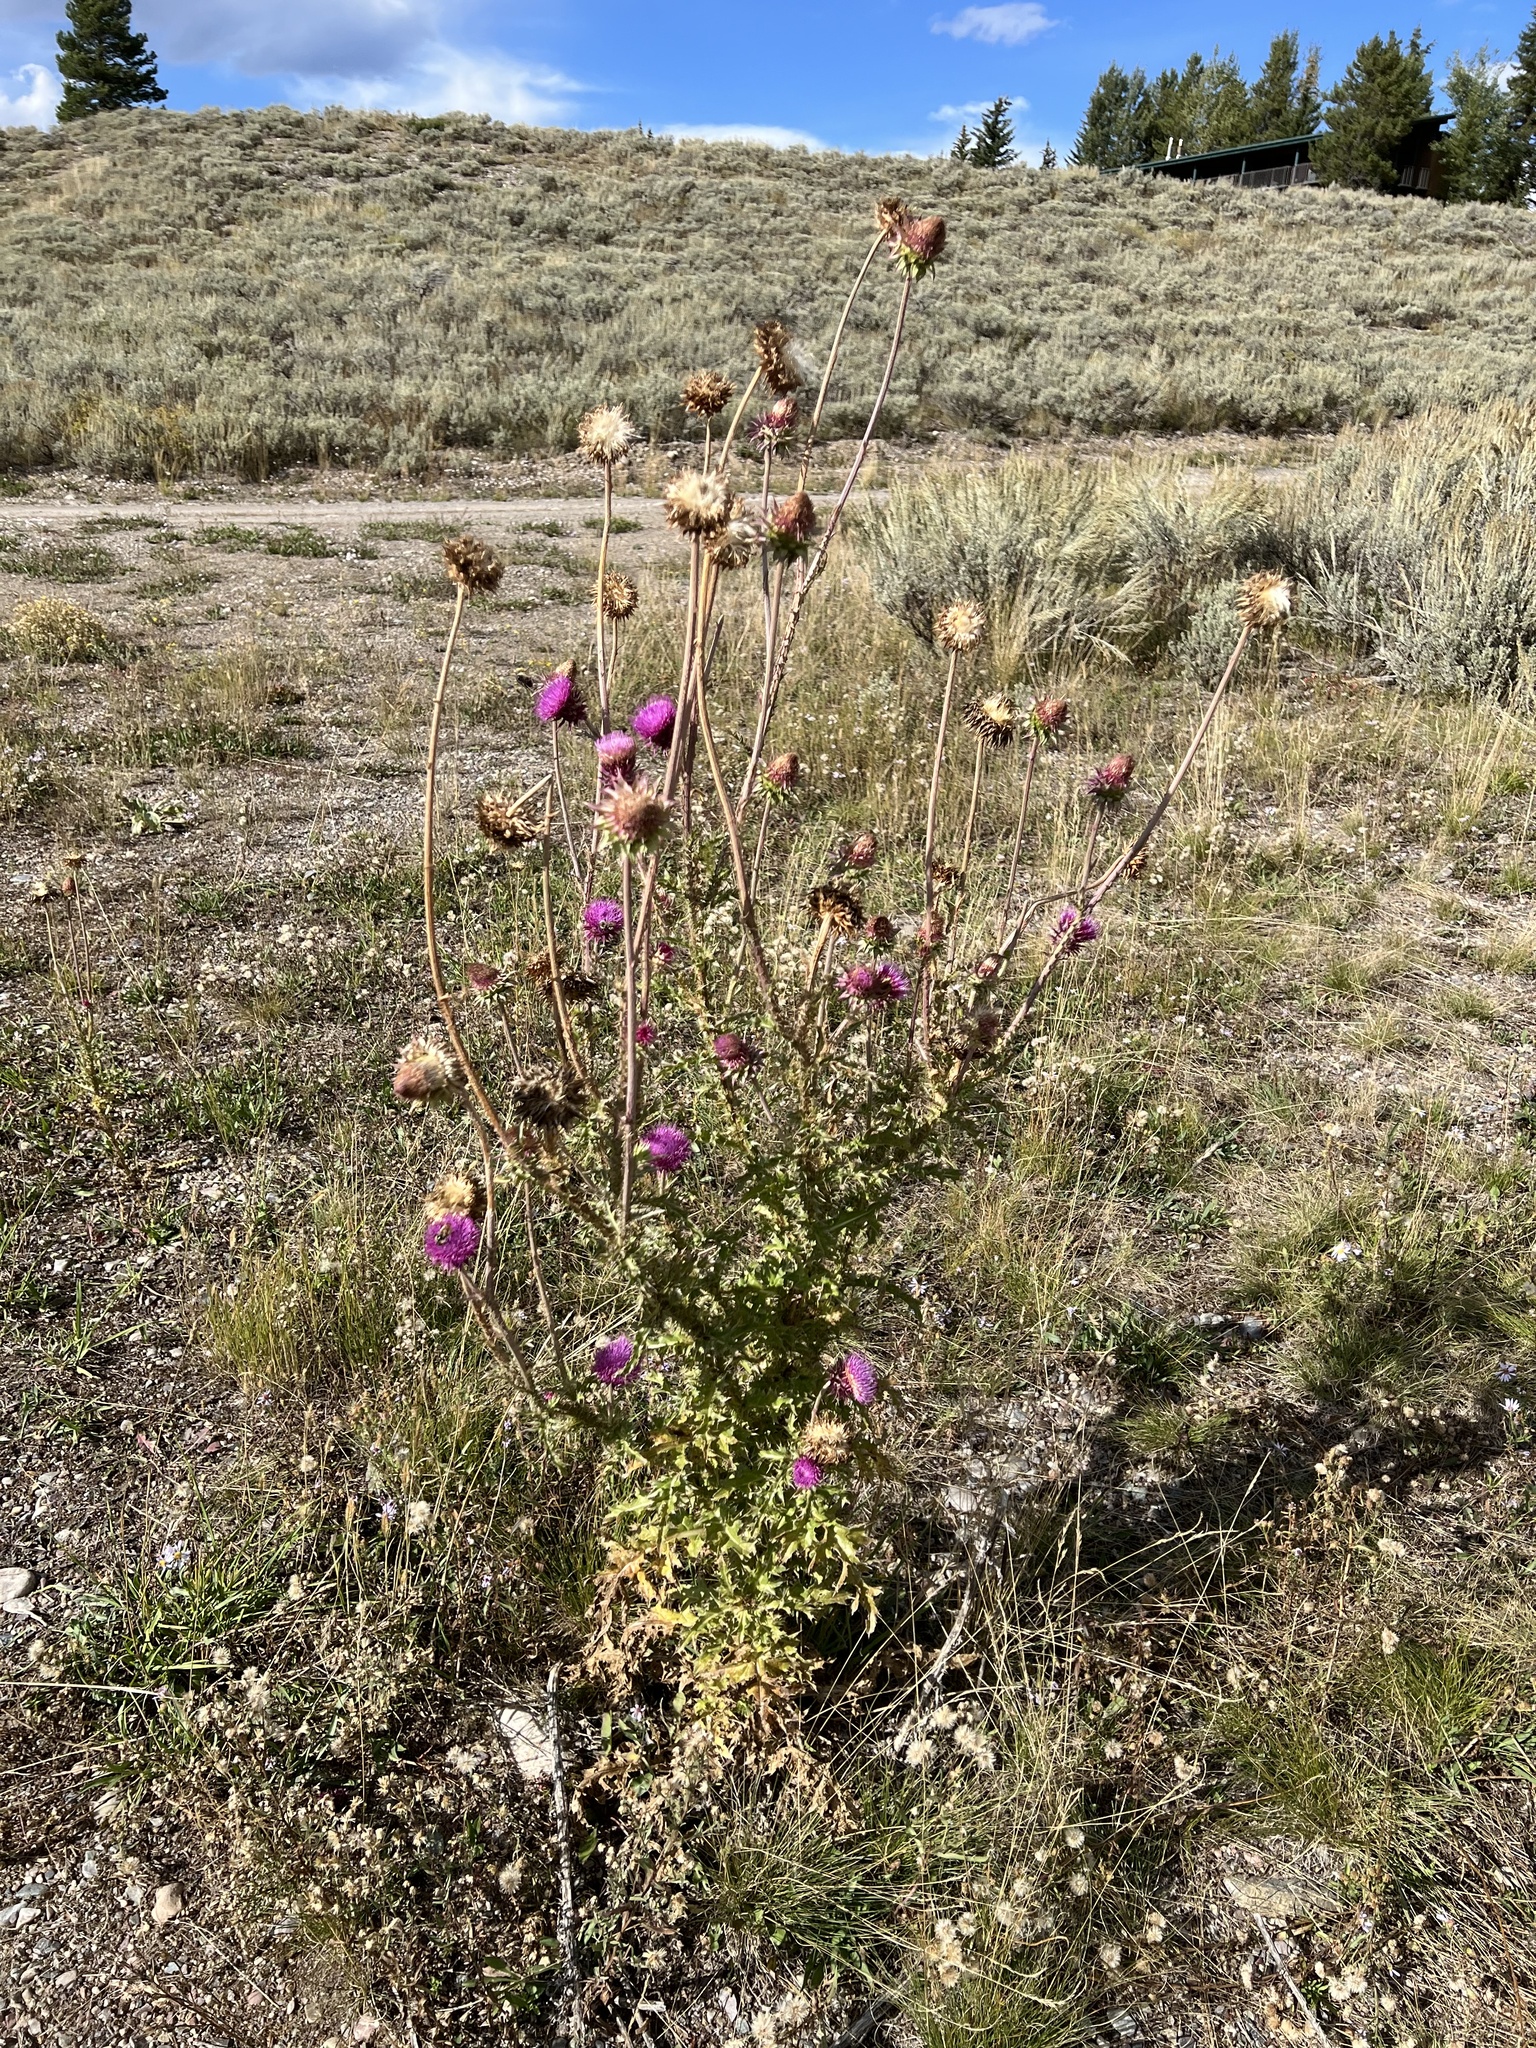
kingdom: Plantae
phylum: Tracheophyta
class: Magnoliopsida
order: Asterales
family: Asteraceae
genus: Carduus
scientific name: Carduus nutans
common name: Musk thistle
